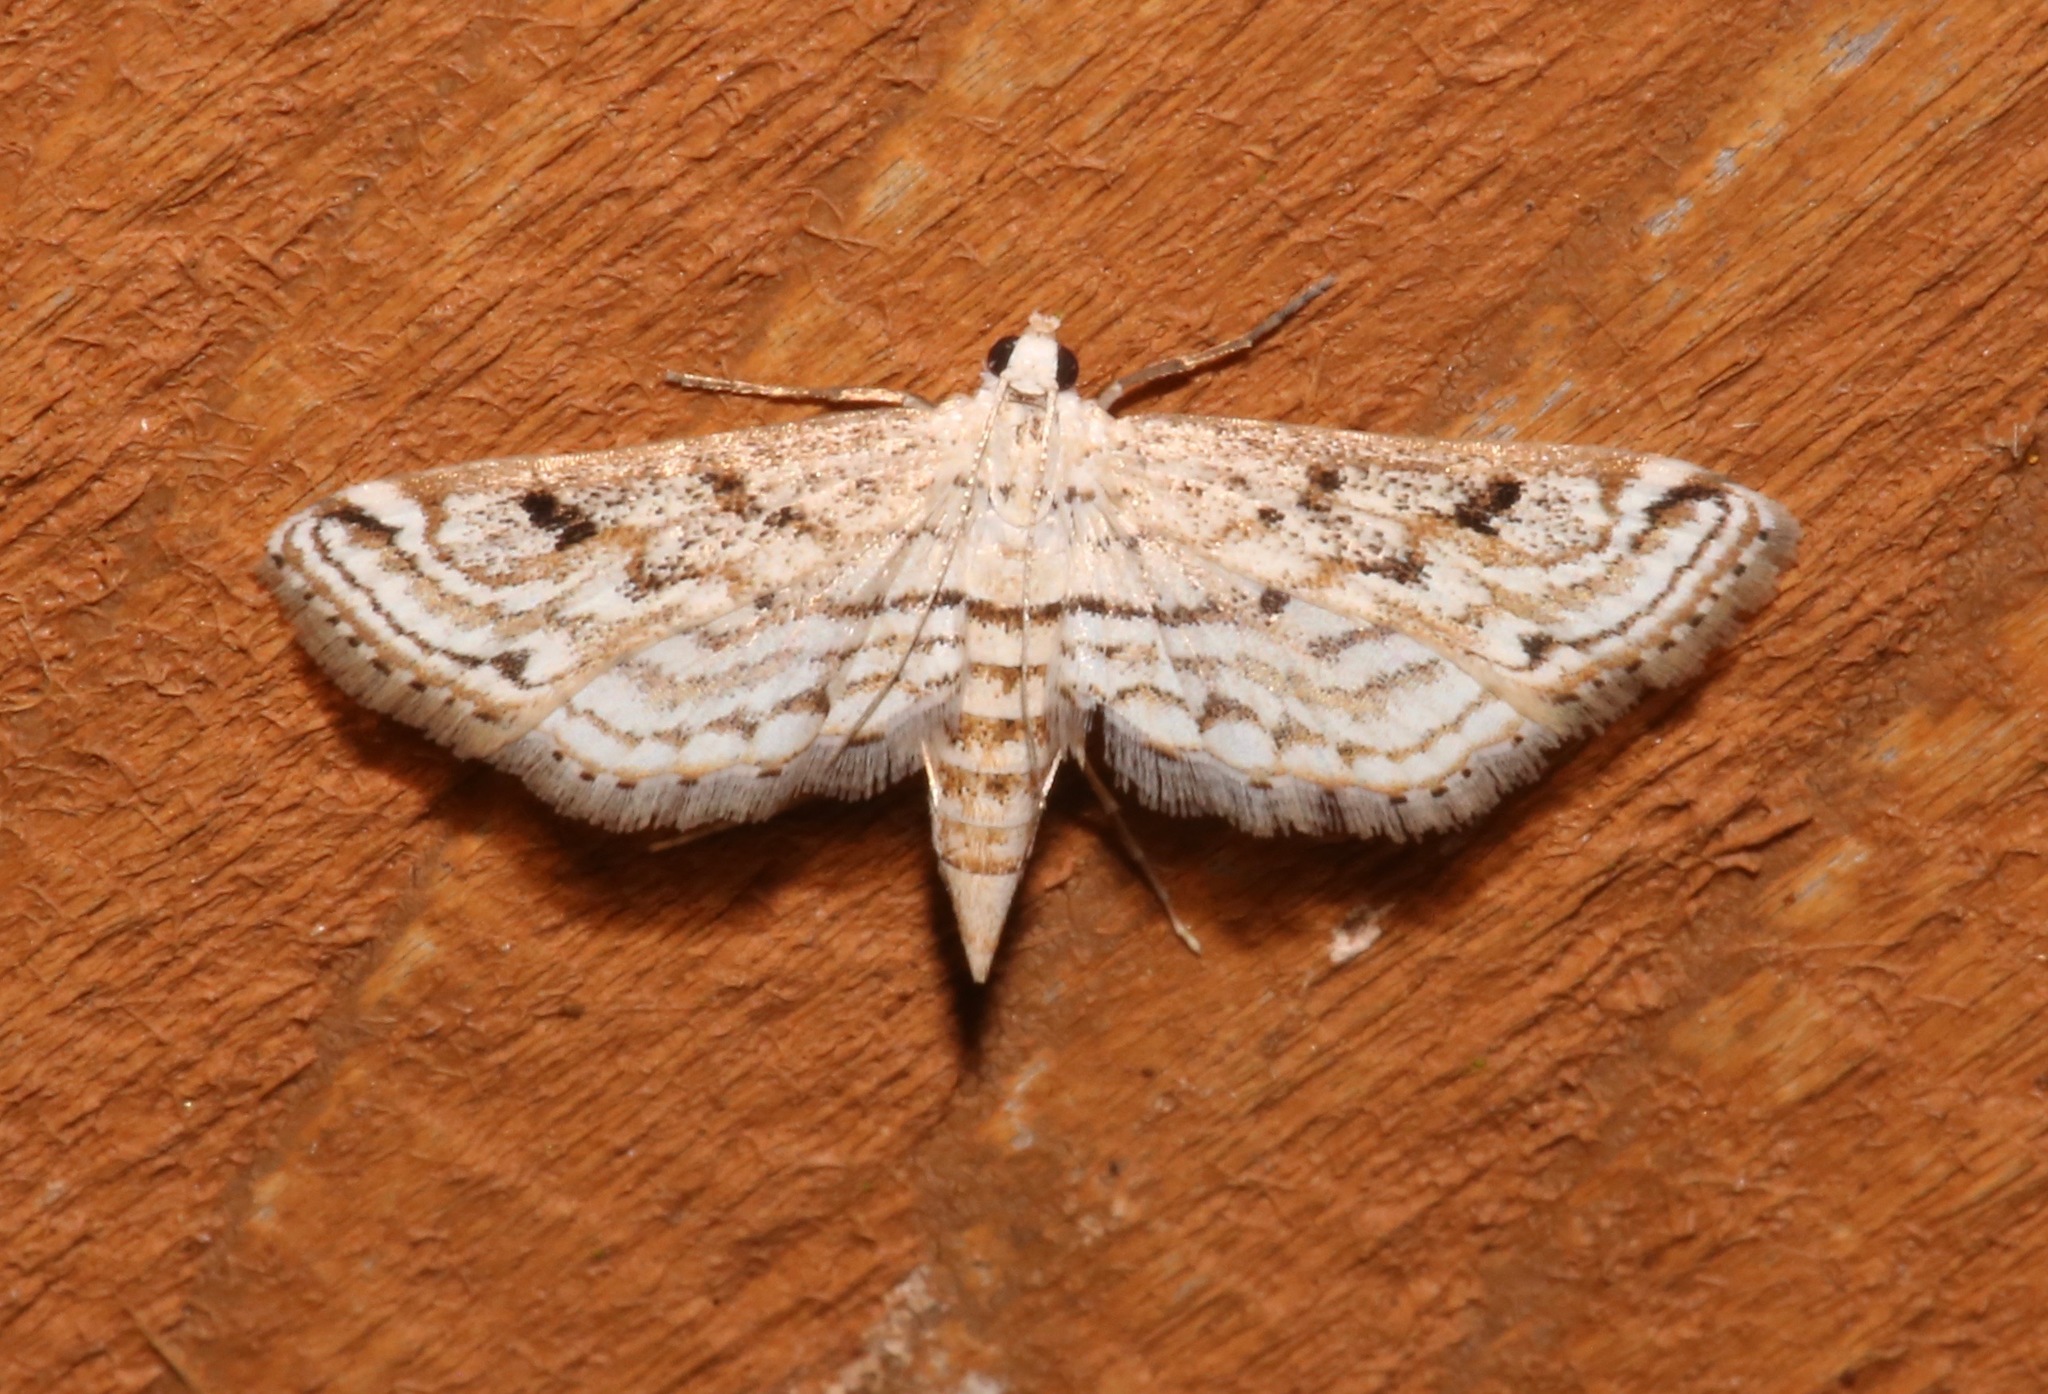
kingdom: Animalia
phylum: Arthropoda
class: Insecta
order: Lepidoptera
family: Crambidae
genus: Parapoynx
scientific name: Parapoynx allionealis
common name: Bladderwort casemaker
